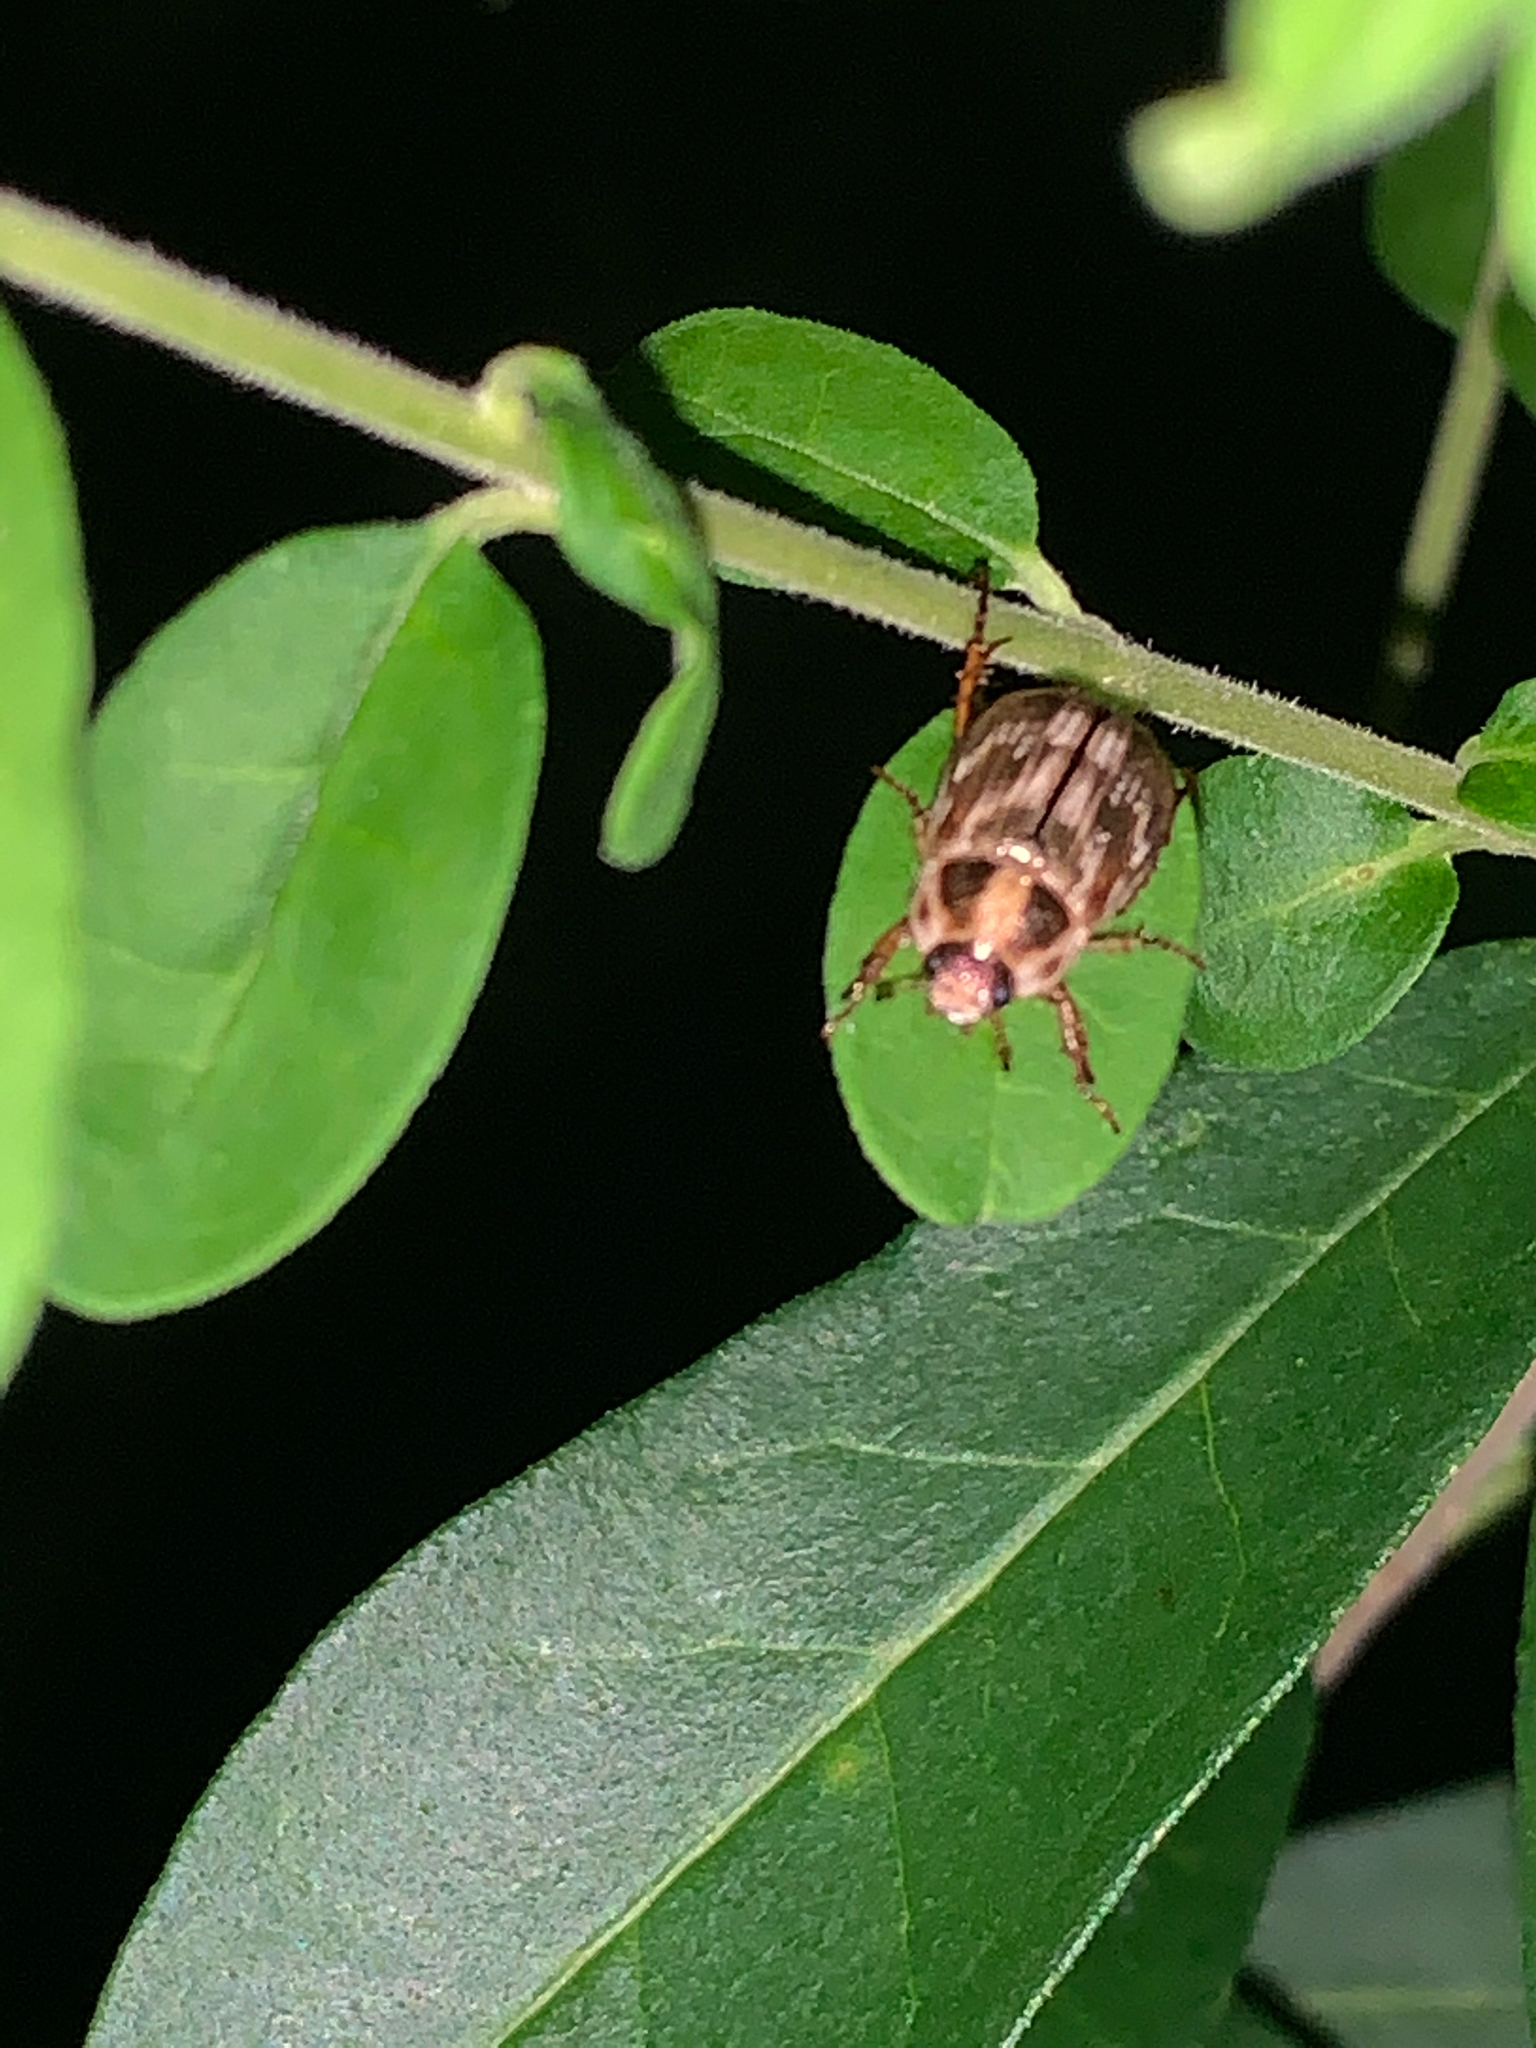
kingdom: Animalia
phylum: Arthropoda
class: Insecta
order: Coleoptera
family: Scarabaeidae
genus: Exomala
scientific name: Exomala orientalis
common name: Oriental beetle
